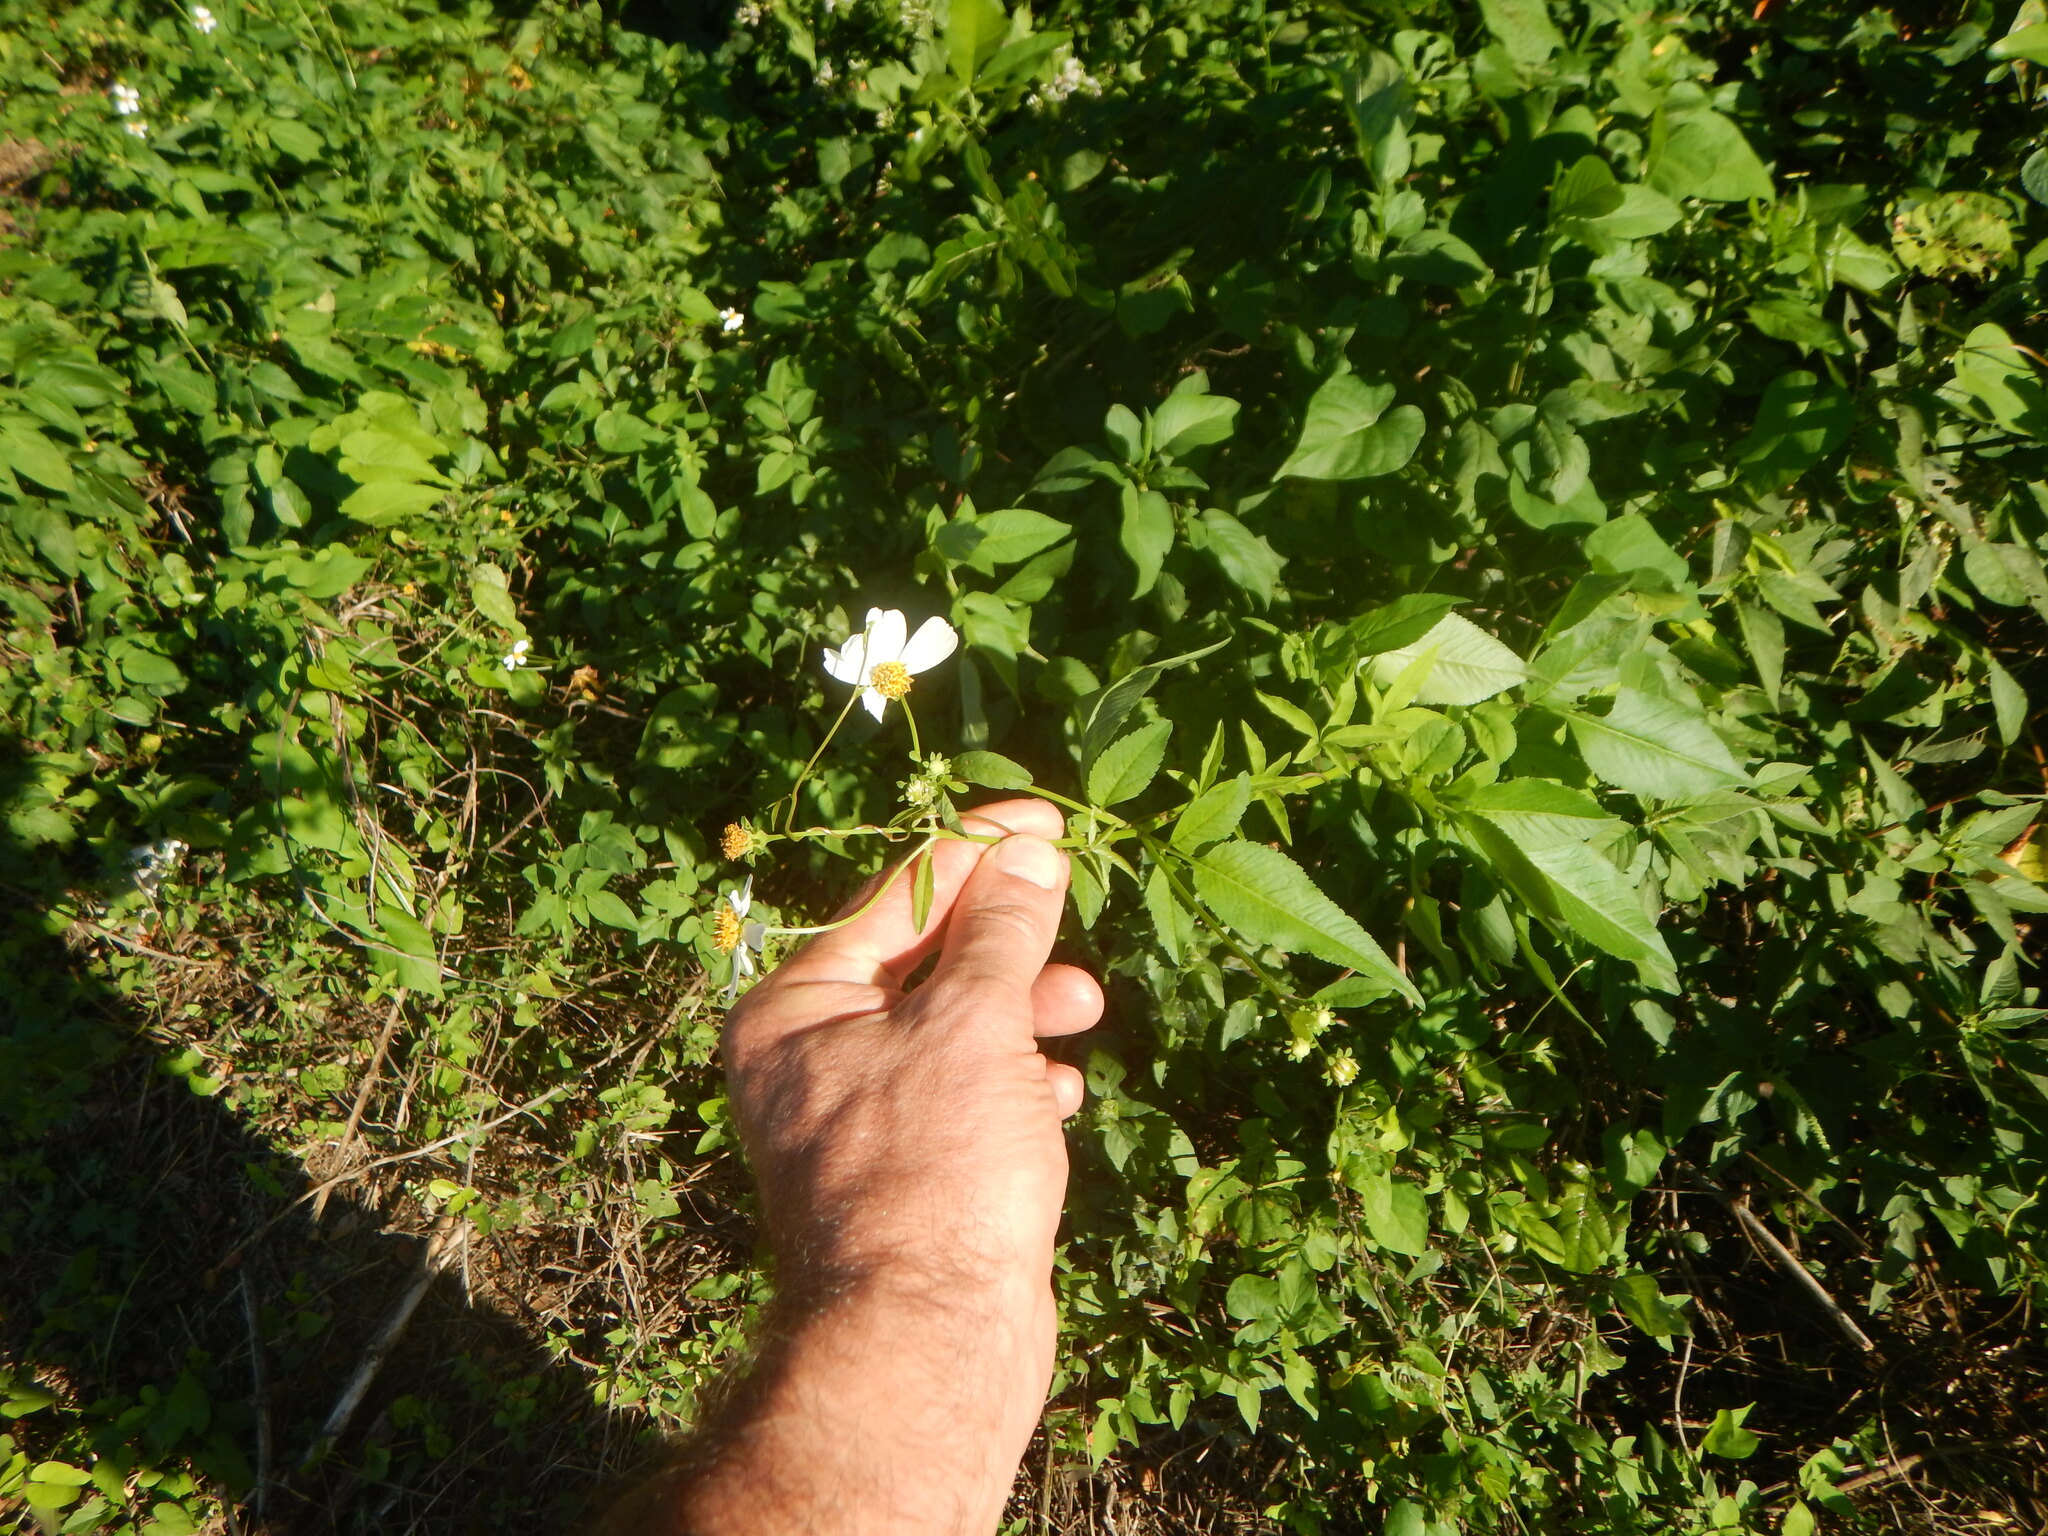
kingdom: Plantae
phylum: Tracheophyta
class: Magnoliopsida
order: Asterales
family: Asteraceae
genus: Bidens
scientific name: Bidens alba
